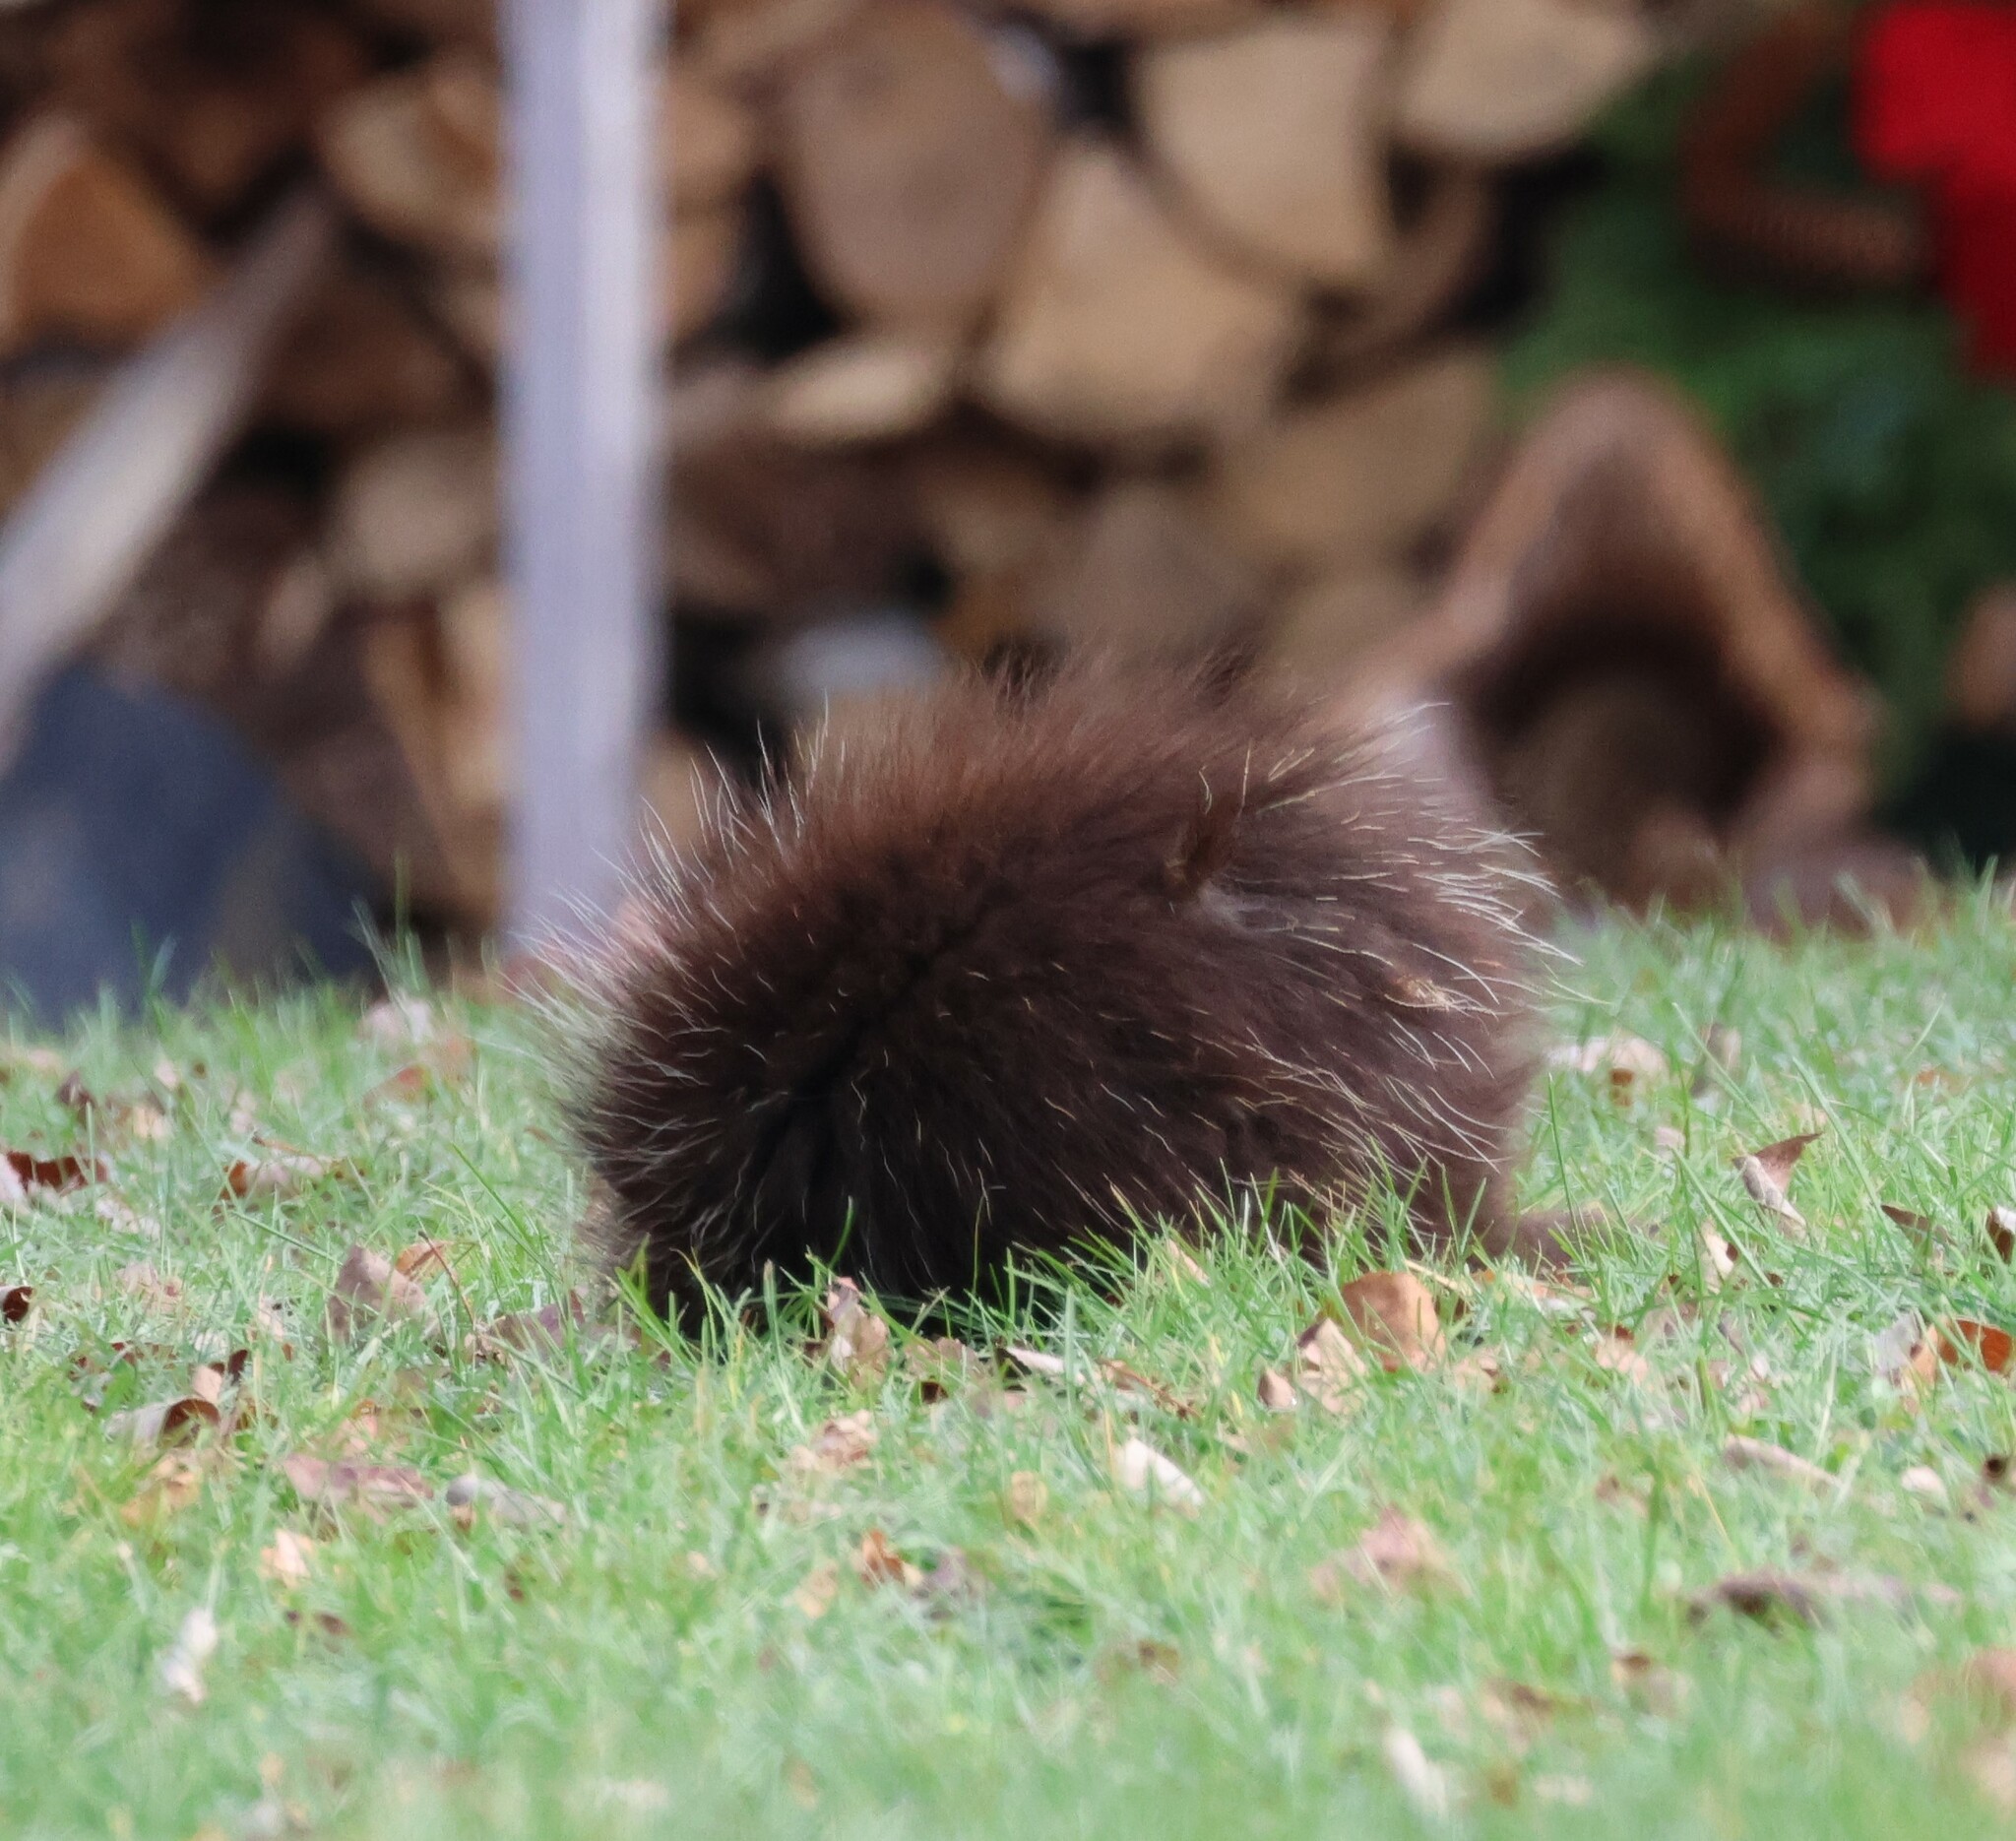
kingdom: Animalia
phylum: Chordata
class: Mammalia
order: Rodentia
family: Erethizontidae
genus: Erethizon
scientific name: Erethizon dorsatus
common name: North american porcupine
